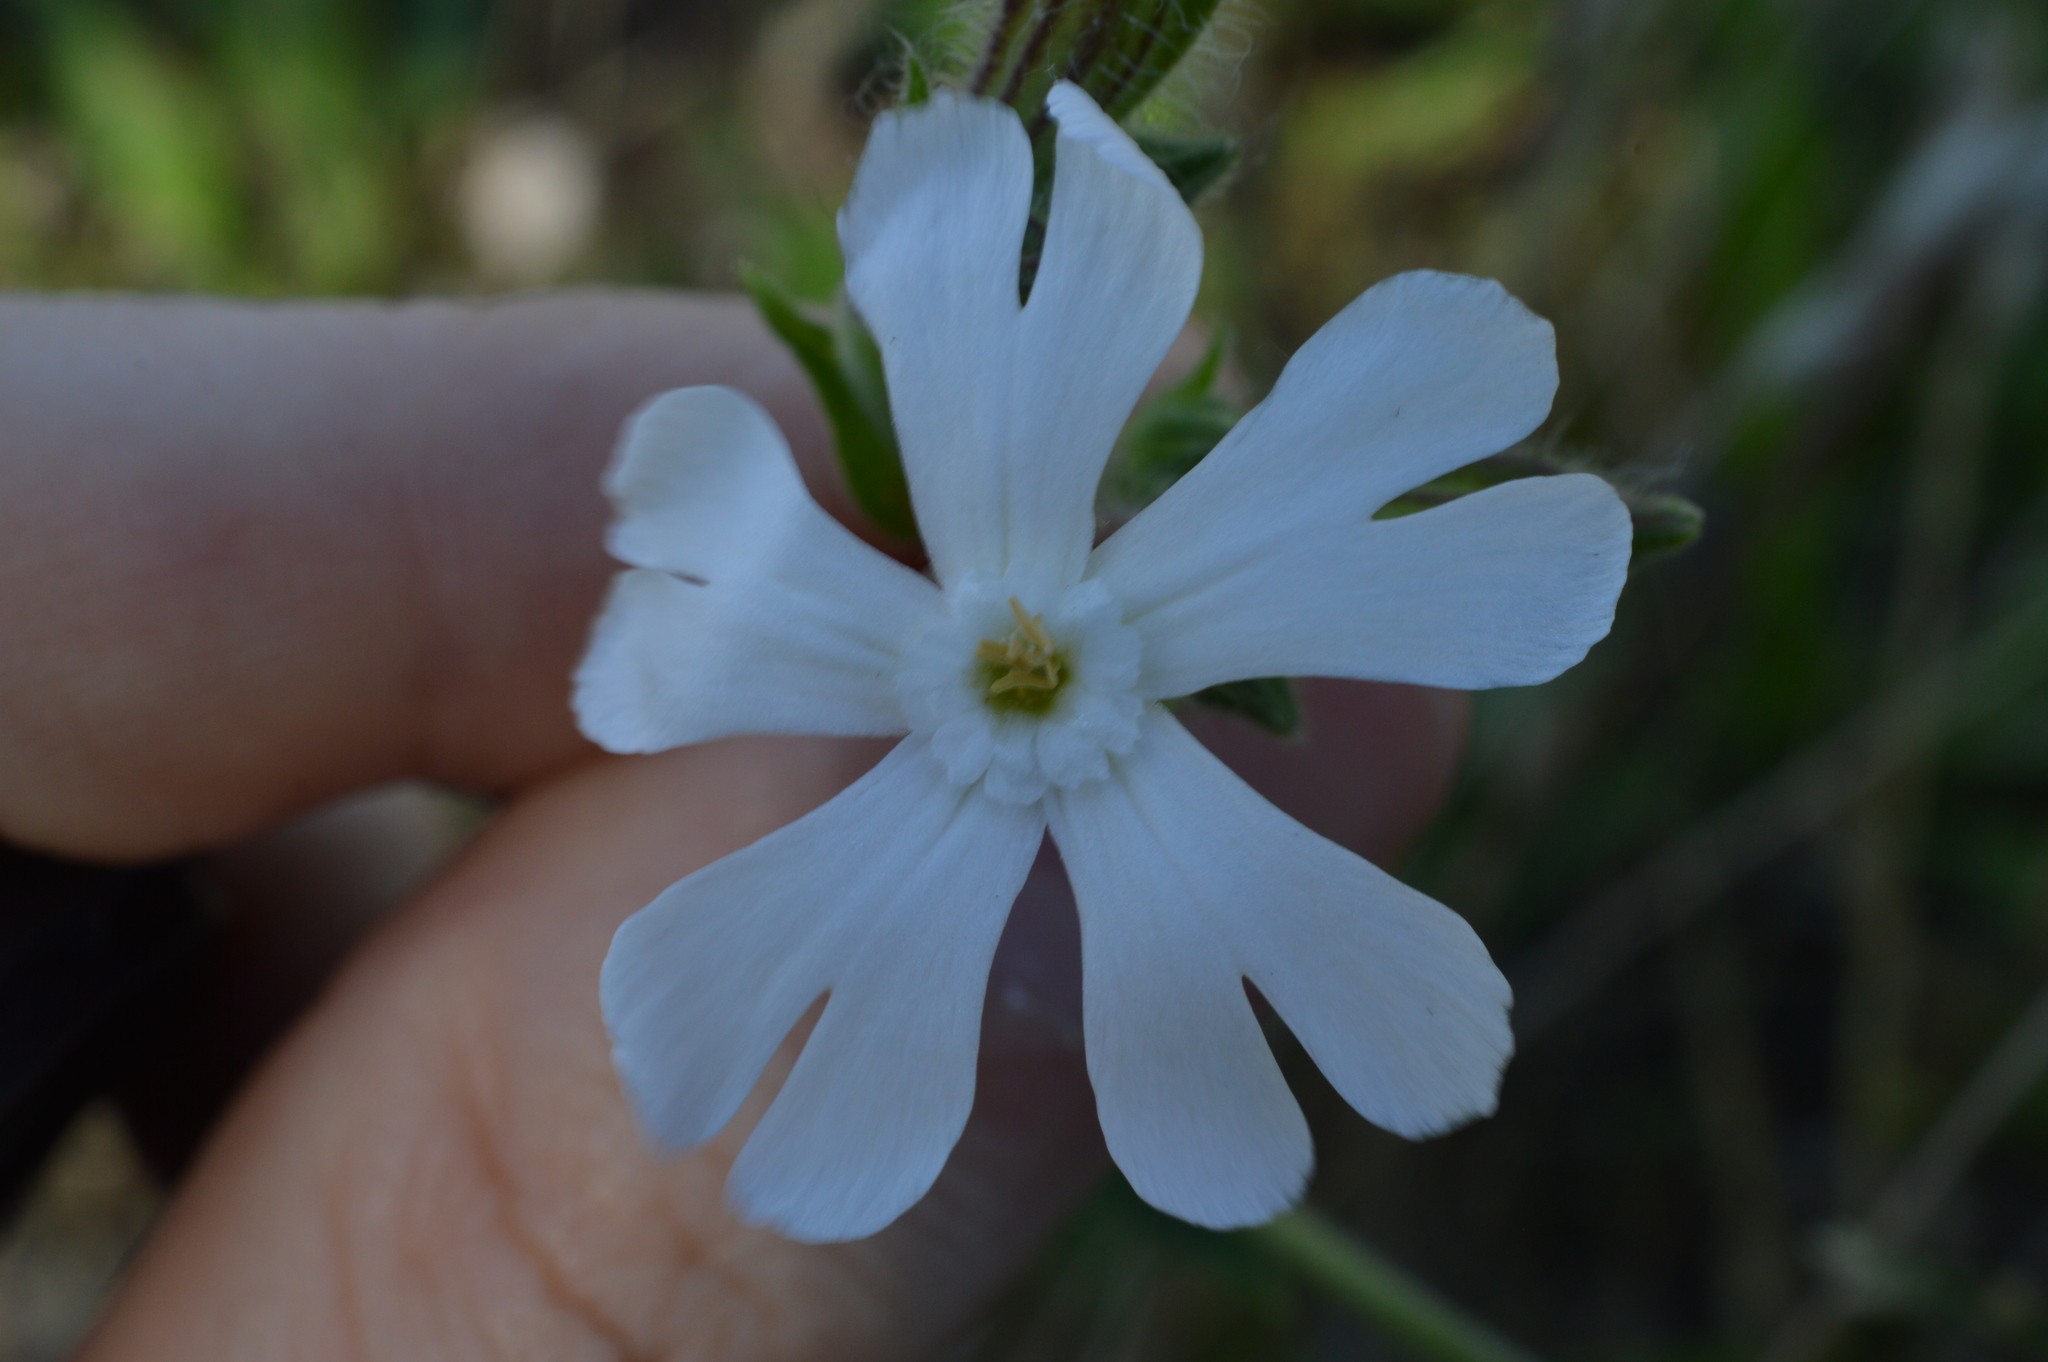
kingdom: Plantae
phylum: Tracheophyta
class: Magnoliopsida
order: Caryophyllales
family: Caryophyllaceae
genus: Silene
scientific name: Silene latifolia
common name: White campion
